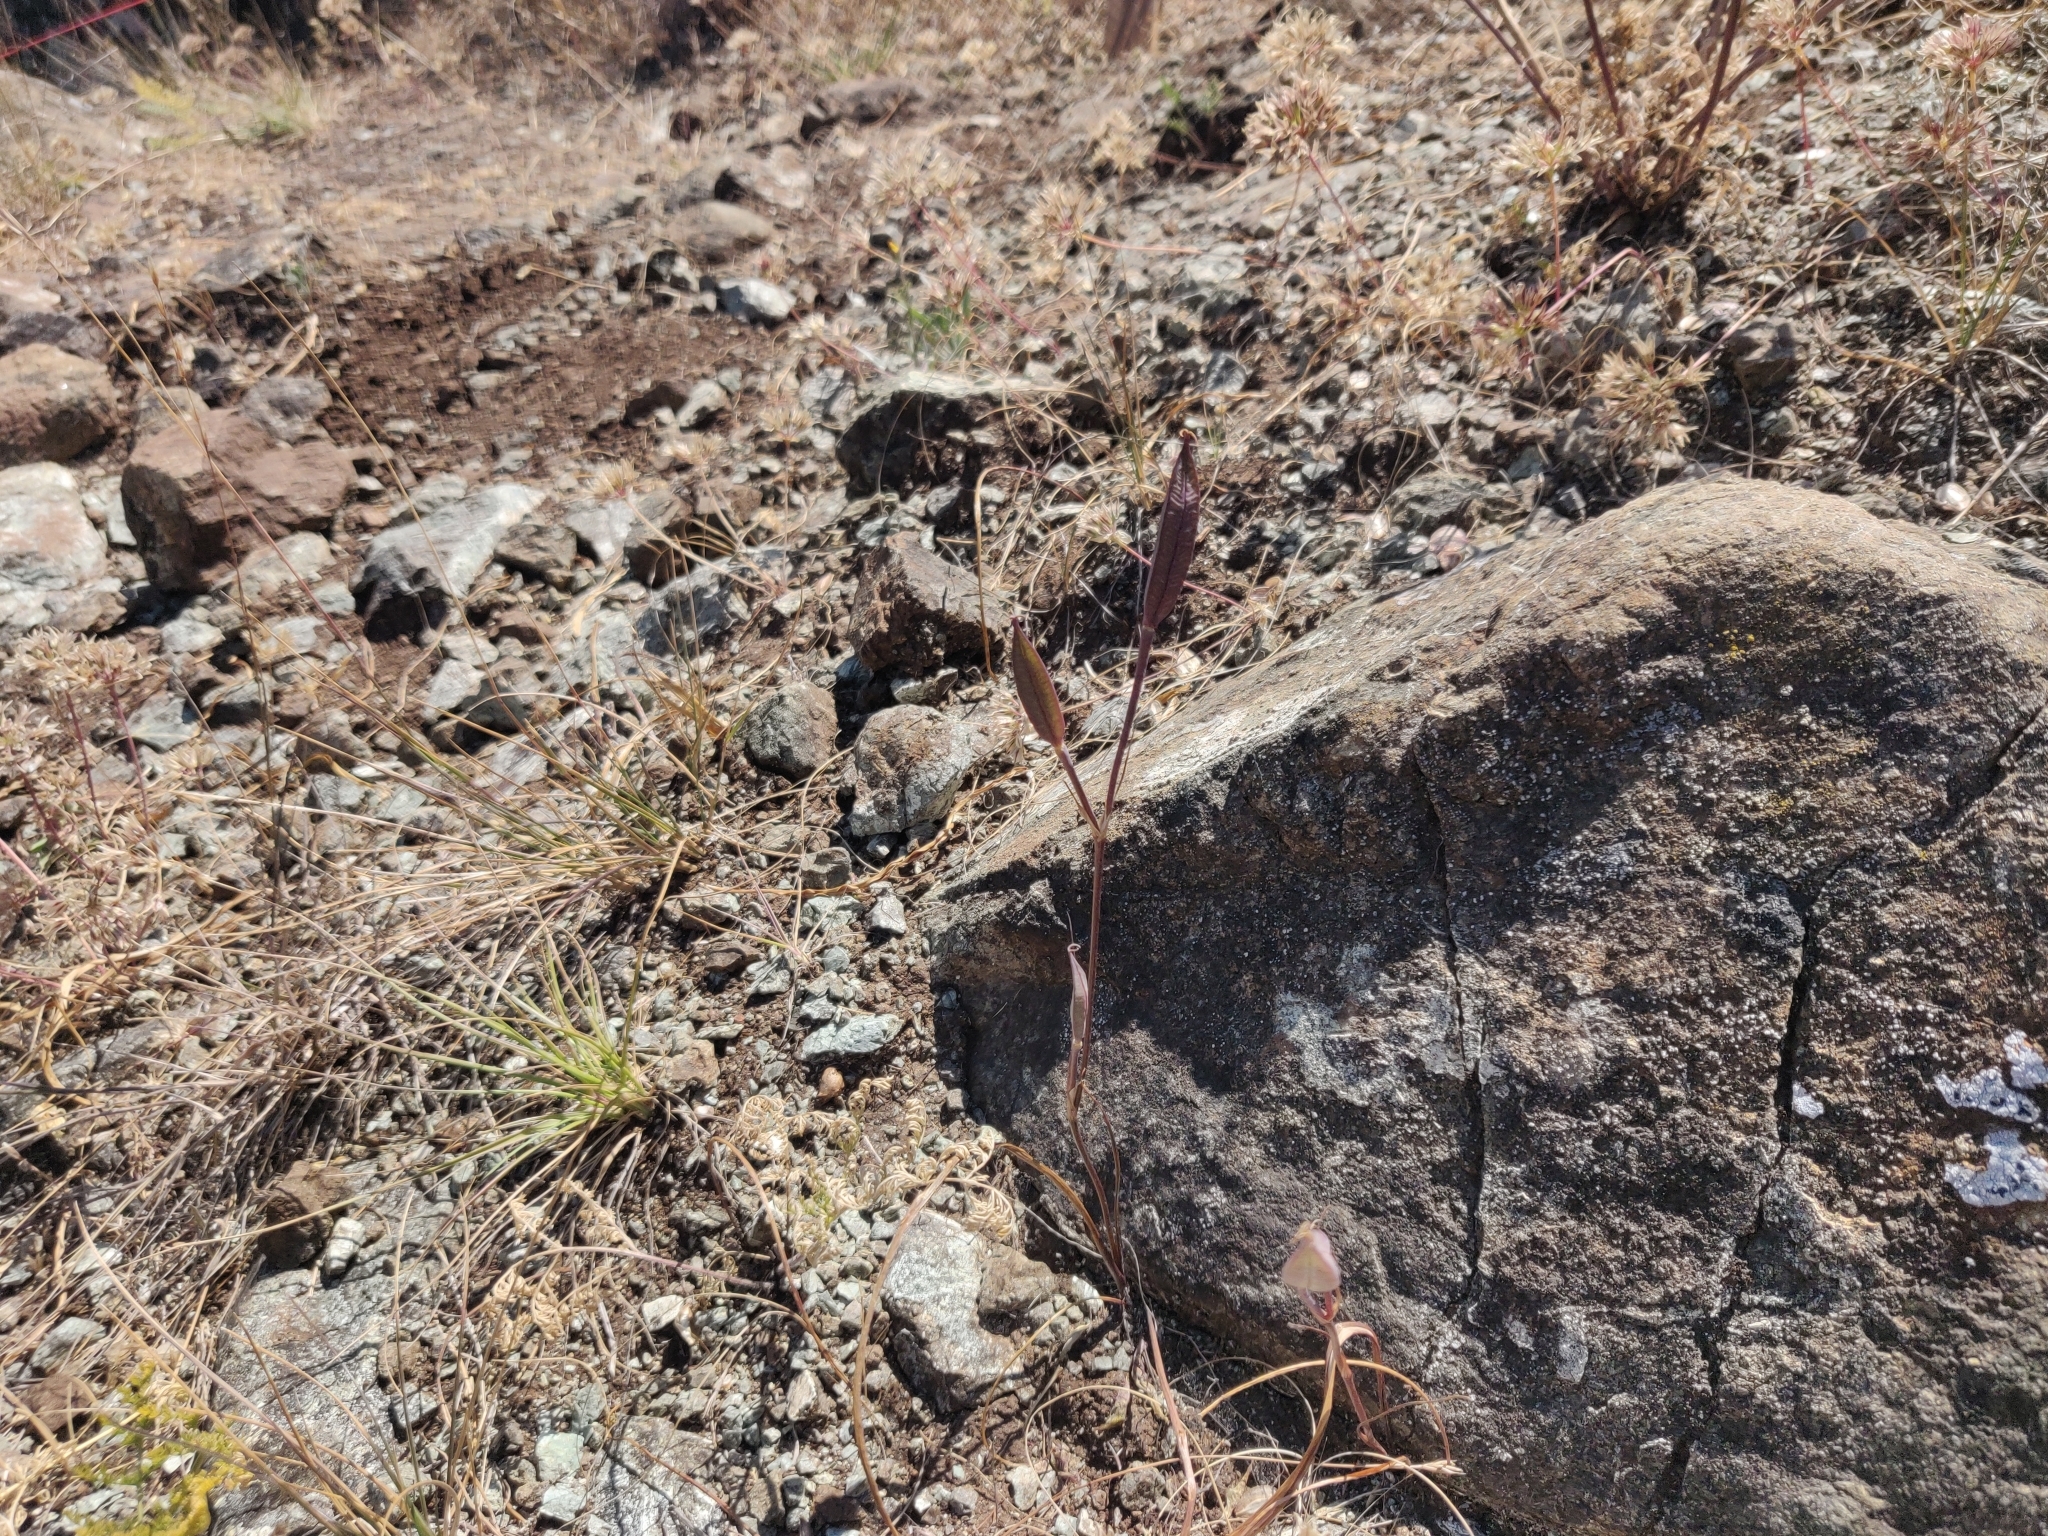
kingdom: Plantae
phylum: Tracheophyta
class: Liliopsida
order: Liliales
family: Liliaceae
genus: Calochortus
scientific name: Calochortus tiburonensis
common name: Tiburon mariposa-lily
